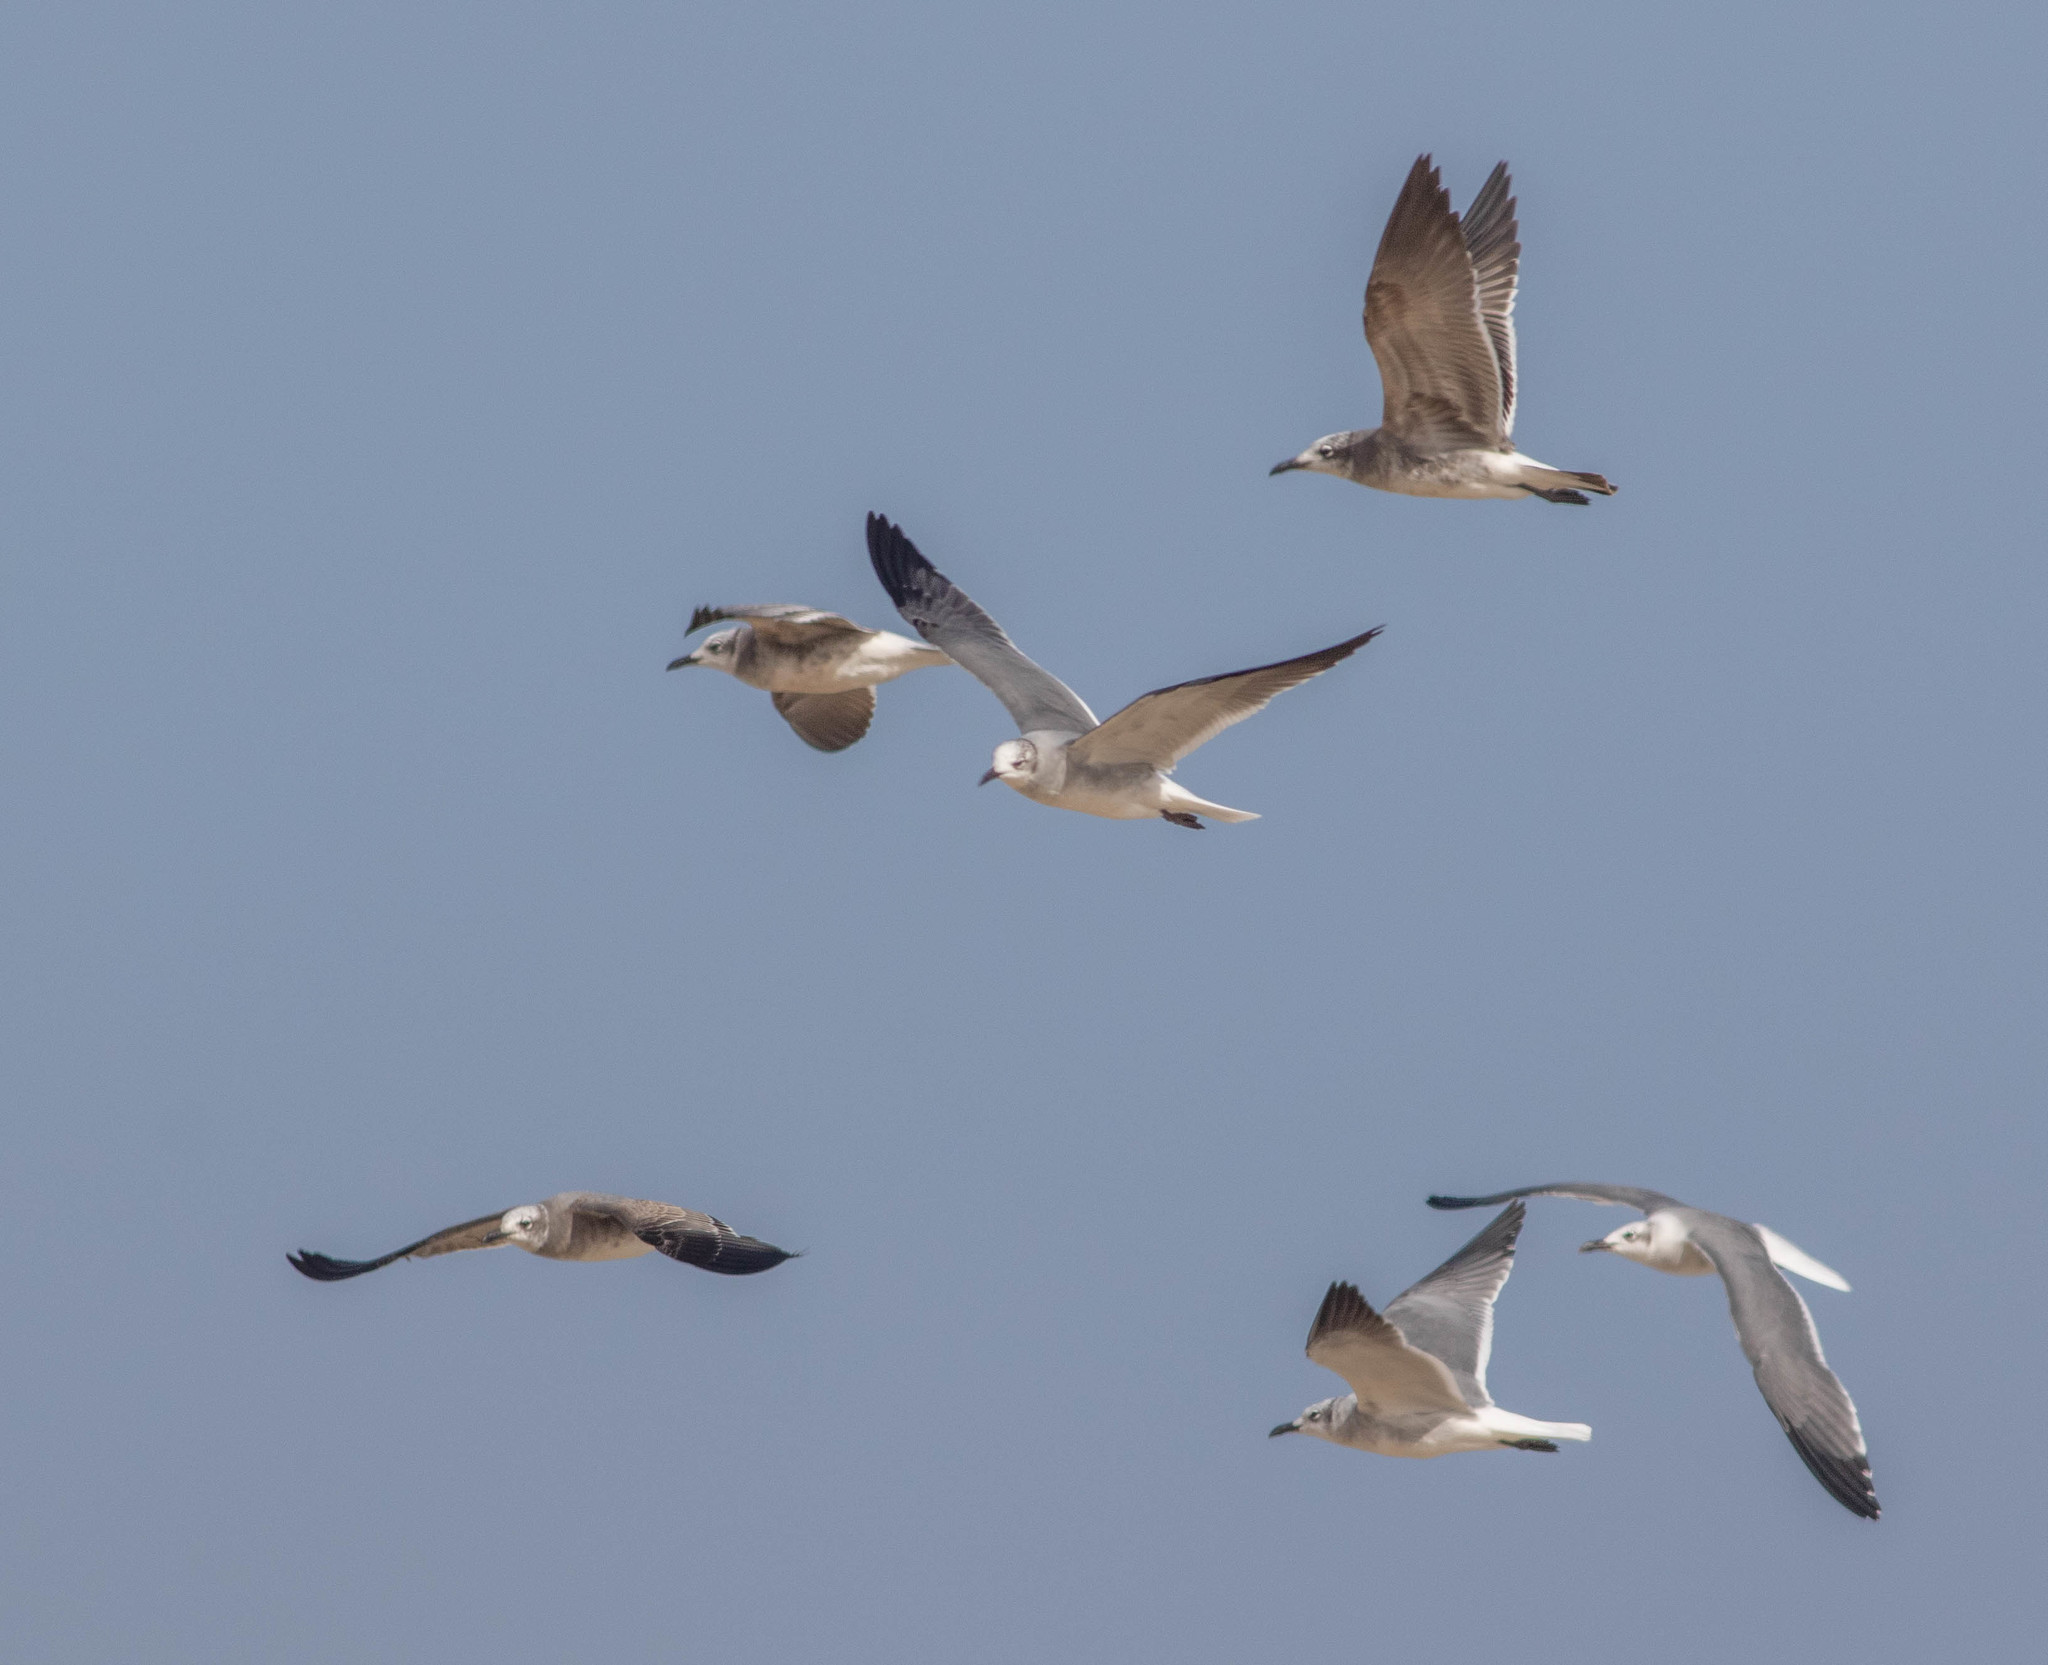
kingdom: Animalia
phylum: Chordata
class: Aves
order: Charadriiformes
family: Laridae
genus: Leucophaeus
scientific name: Leucophaeus atricilla
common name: Laughing gull
